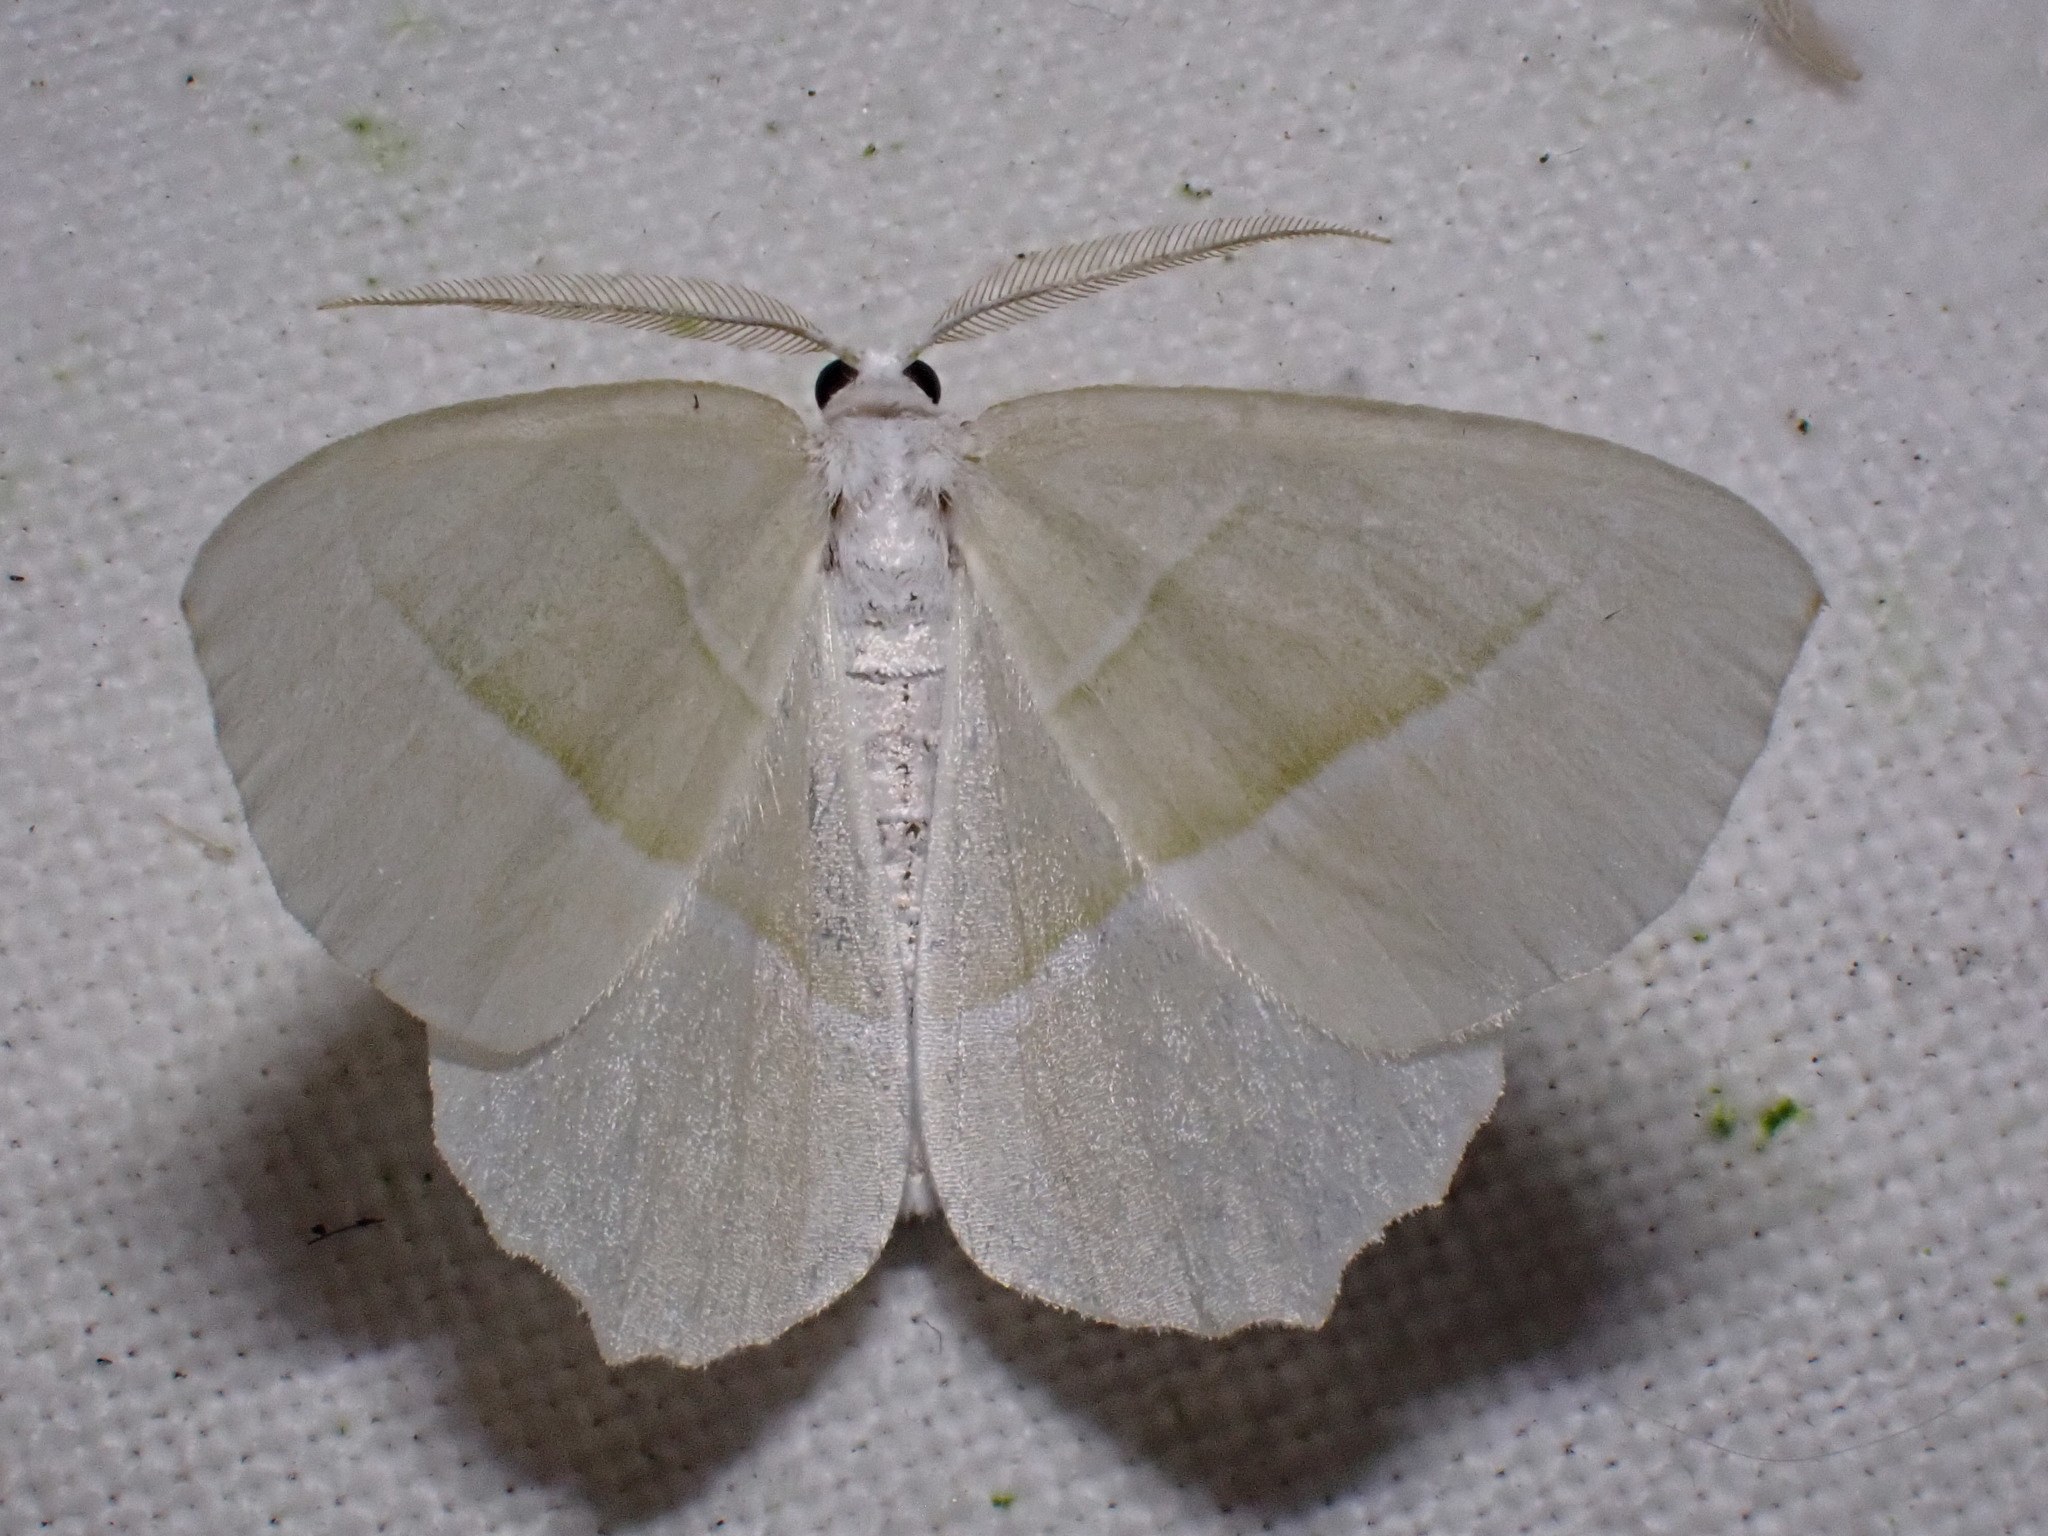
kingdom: Animalia
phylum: Arthropoda
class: Insecta
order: Lepidoptera
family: Geometridae
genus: Campaea
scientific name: Campaea margaritaria
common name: Light emerald
